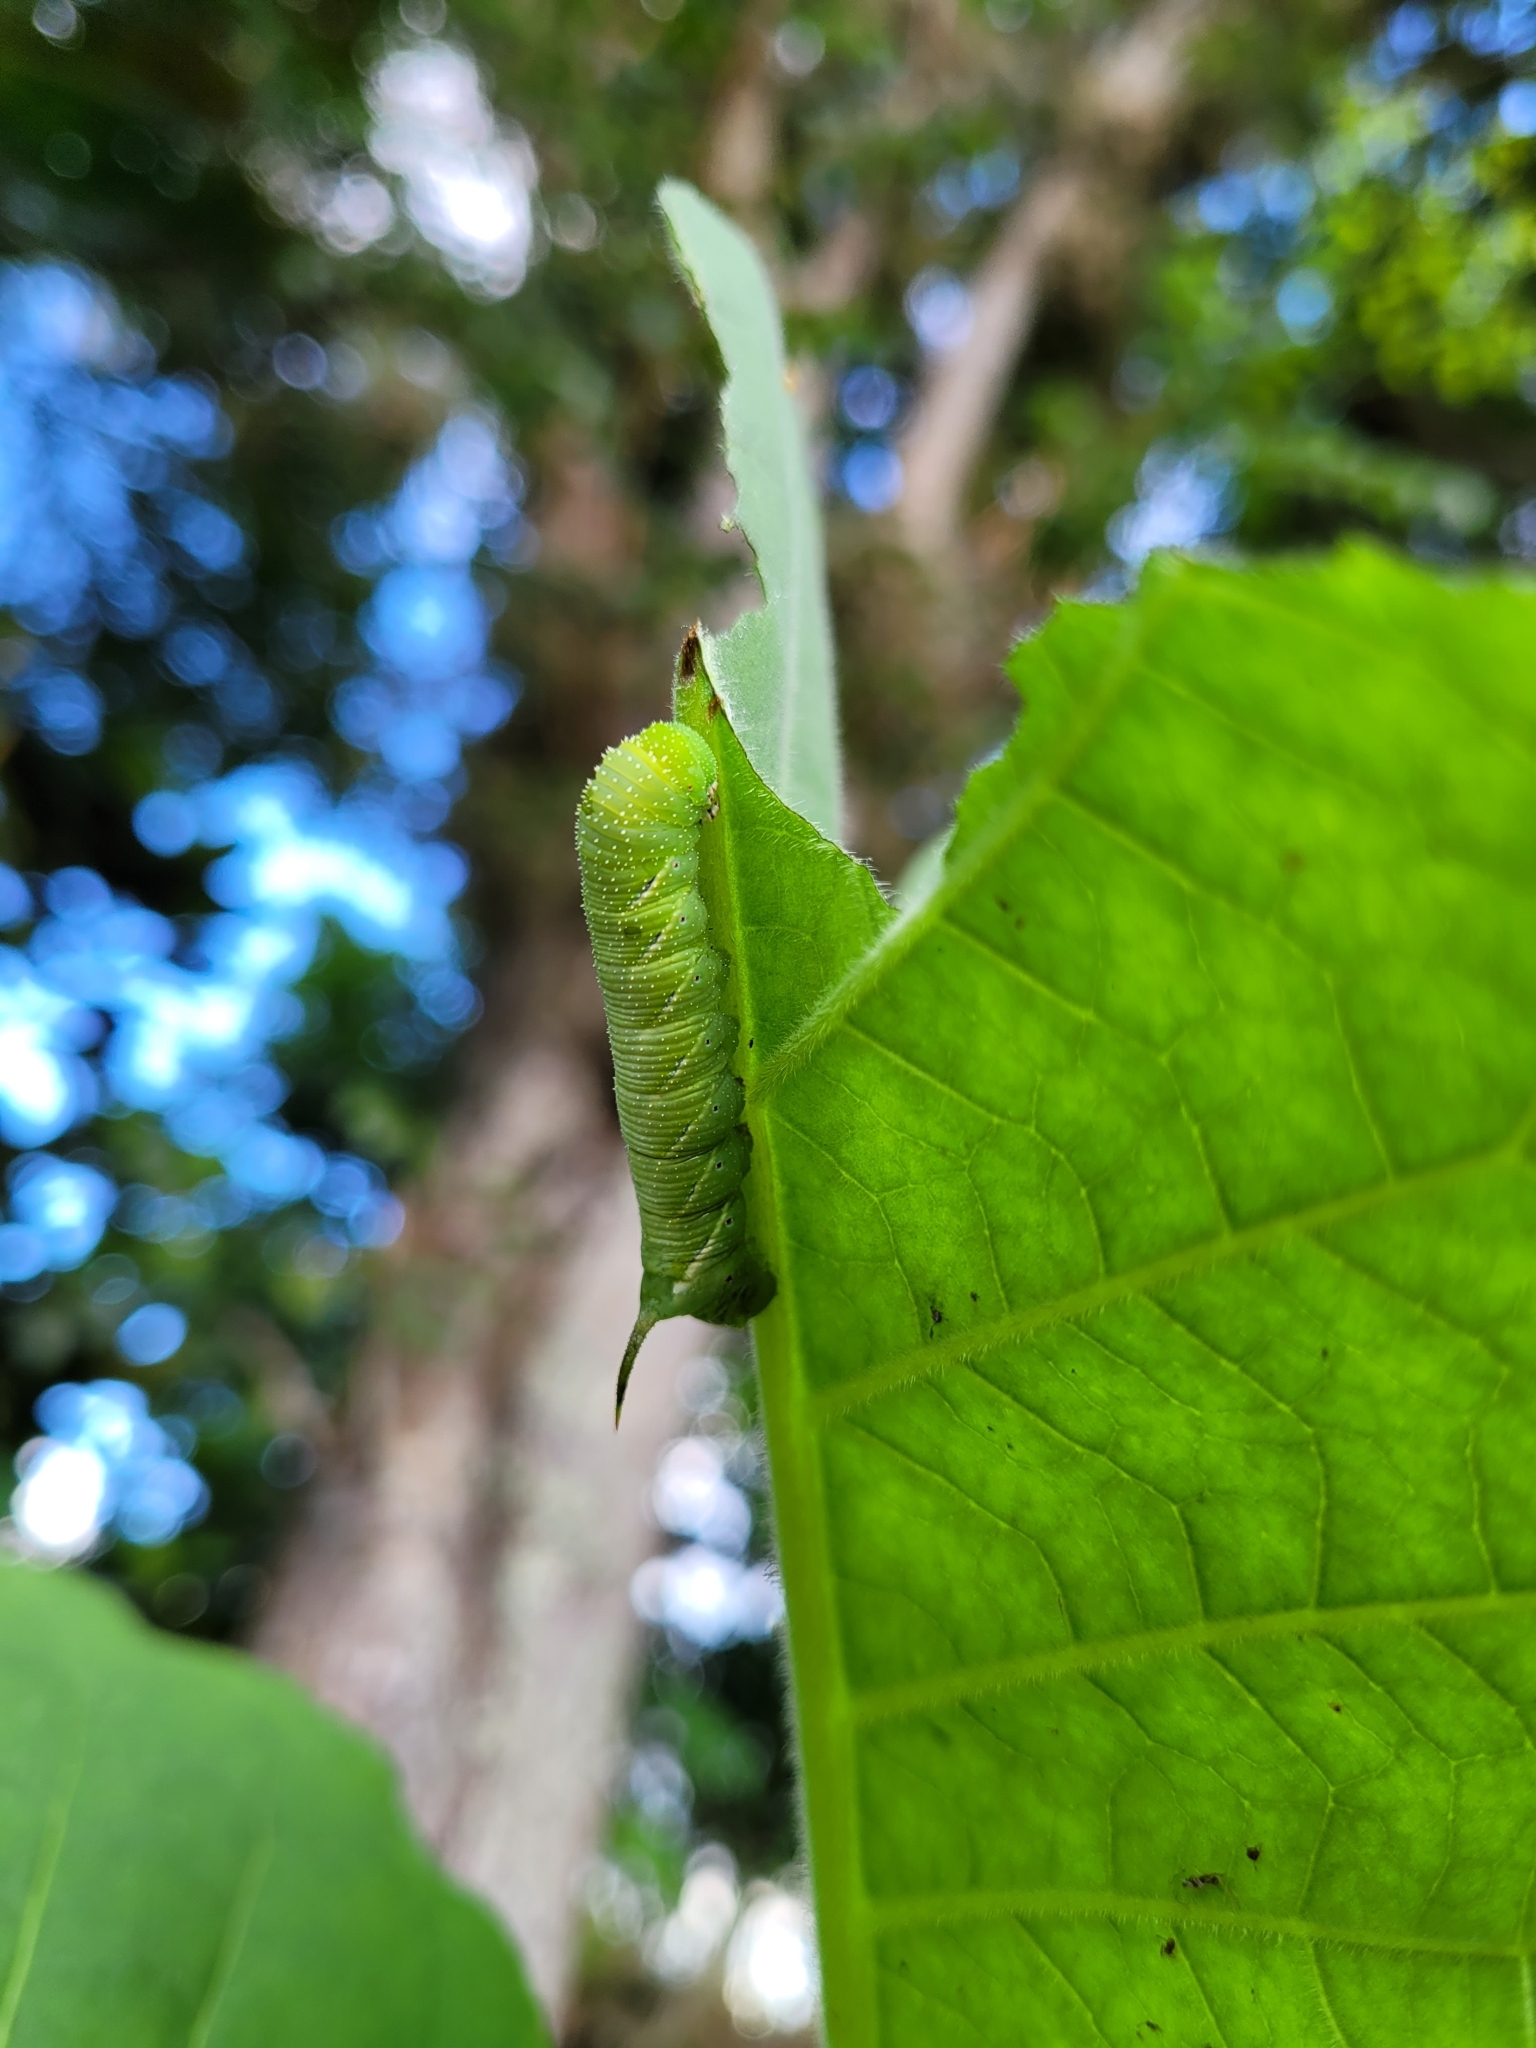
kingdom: Animalia
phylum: Arthropoda
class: Insecta
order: Lepidoptera
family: Sphingidae
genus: Manduca
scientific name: Manduca sexta
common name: Carolina sphinx
